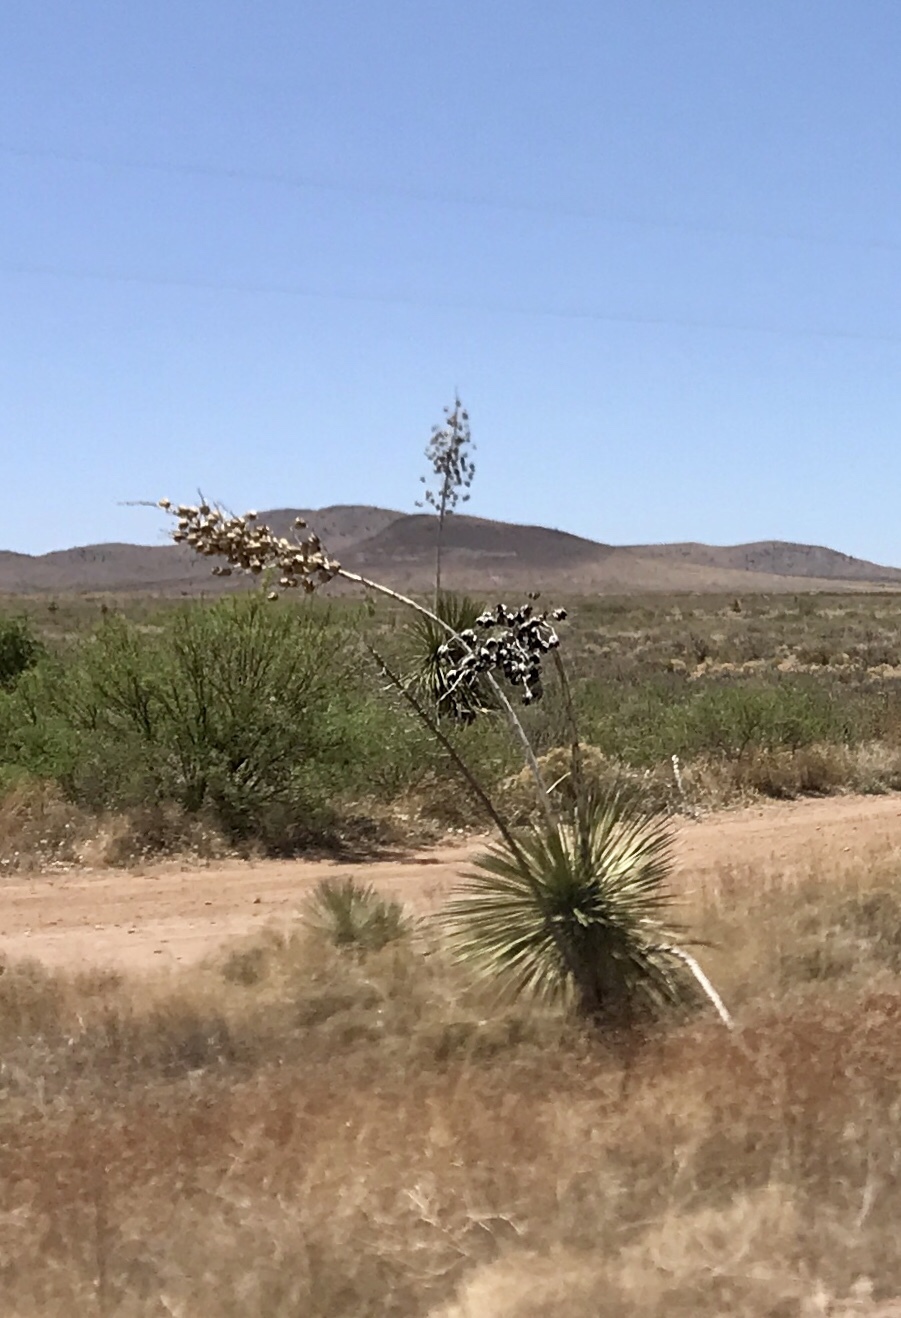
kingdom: Plantae
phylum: Tracheophyta
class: Liliopsida
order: Asparagales
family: Asparagaceae
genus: Yucca
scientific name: Yucca elata
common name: Palmella
